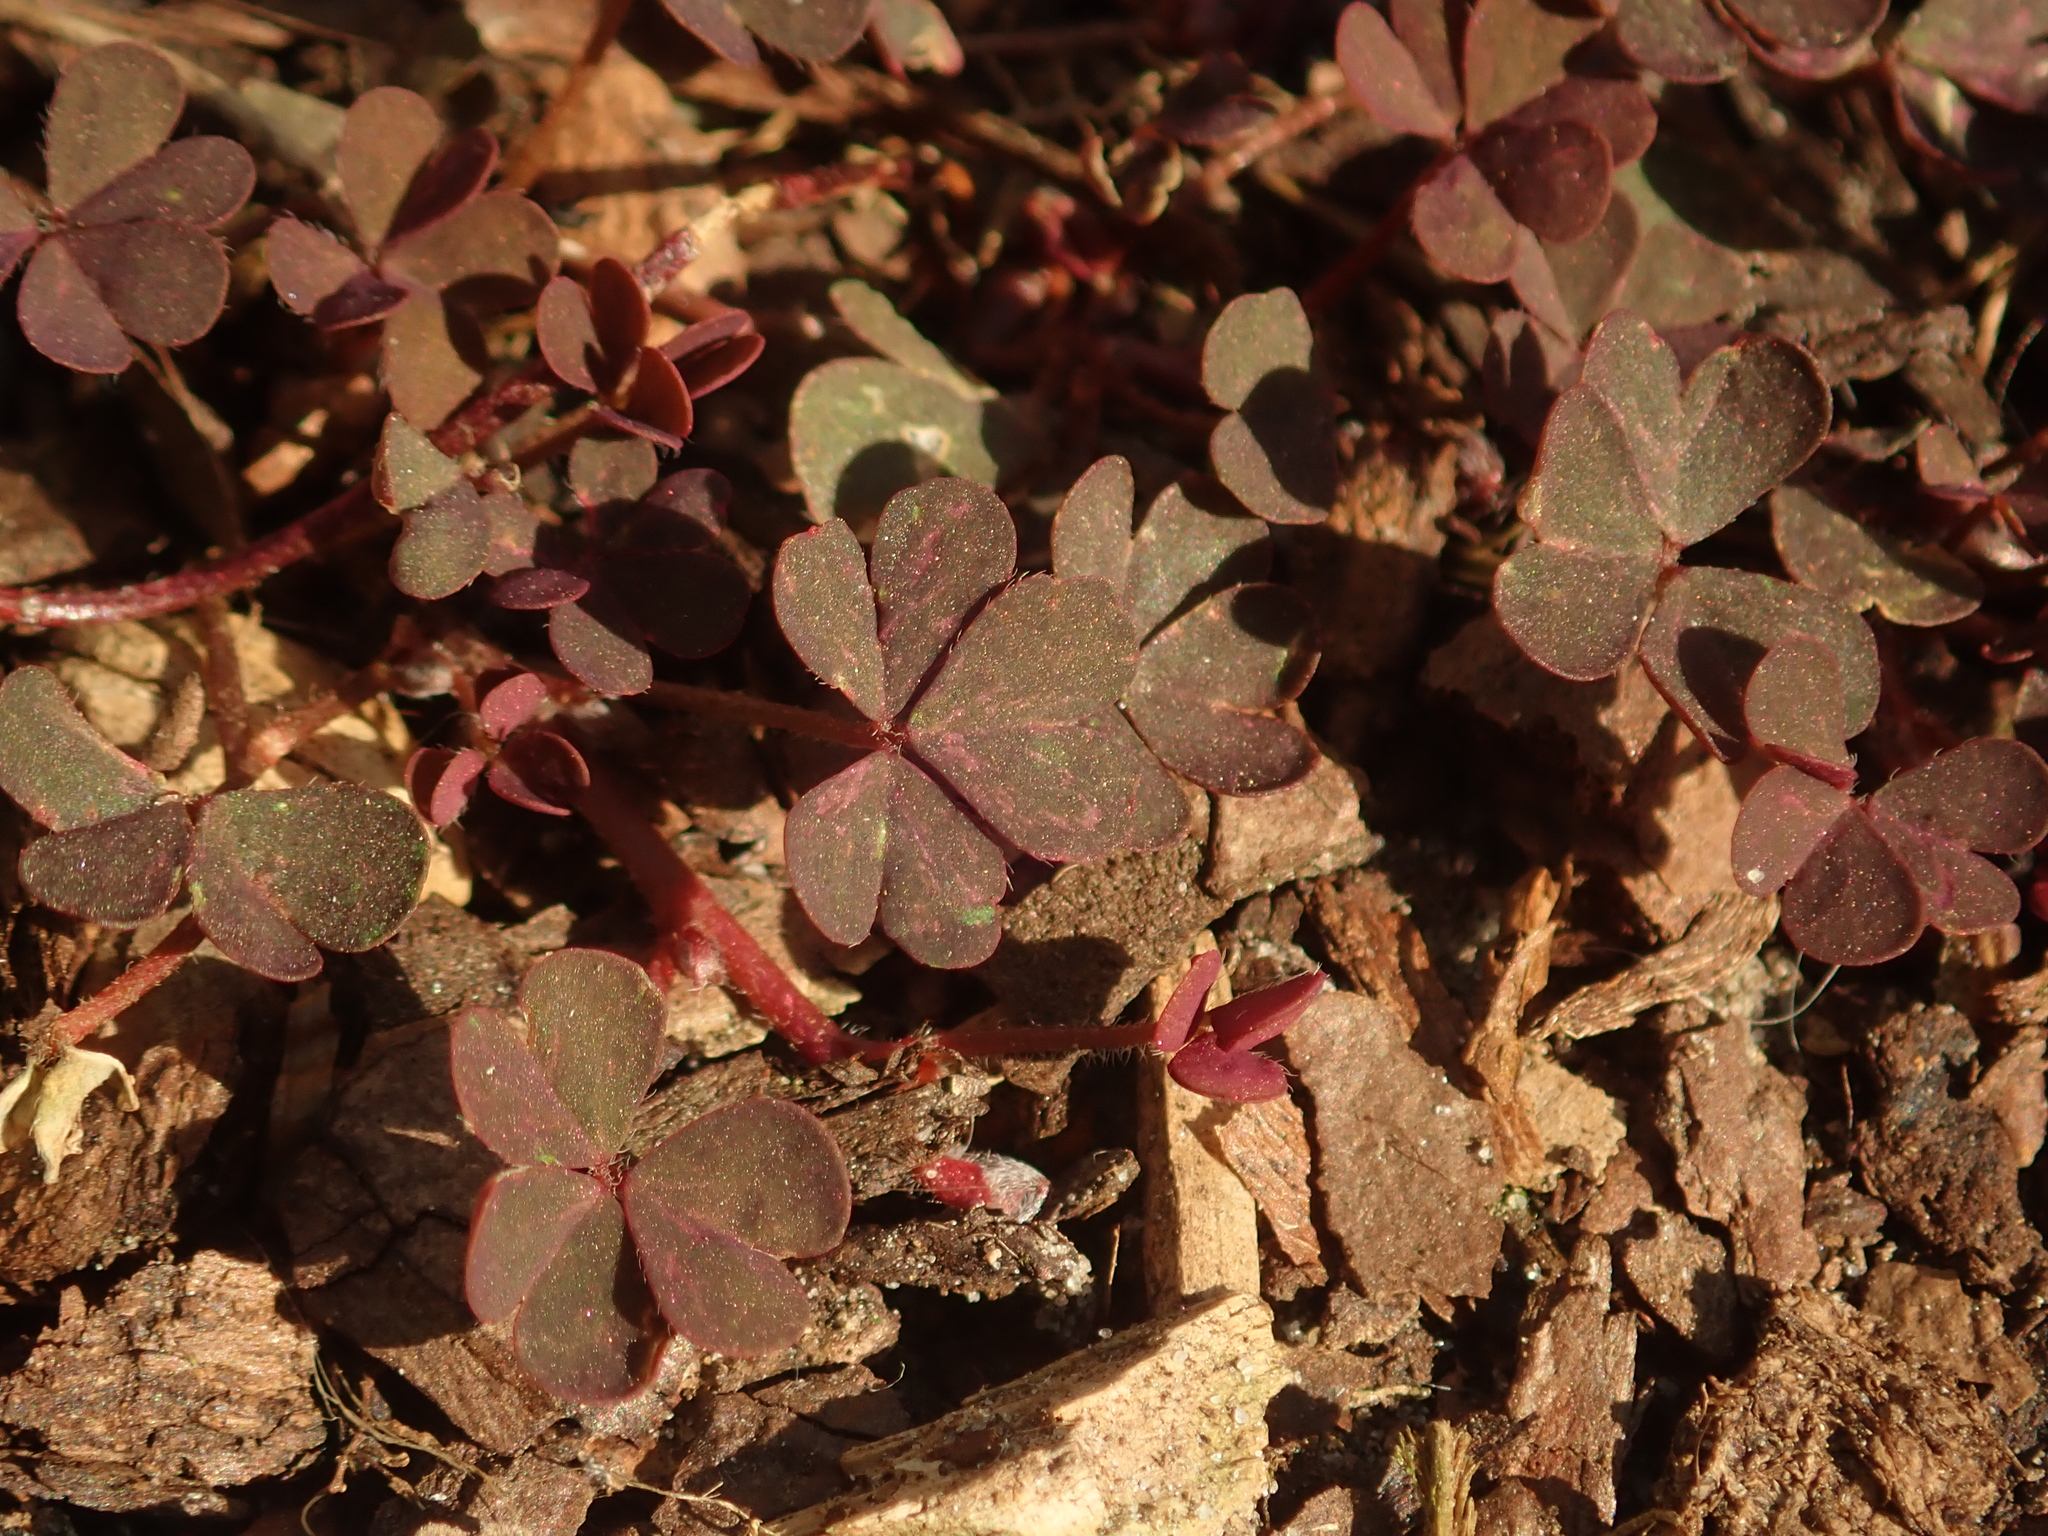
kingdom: Plantae
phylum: Tracheophyta
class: Magnoliopsida
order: Oxalidales
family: Oxalidaceae
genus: Oxalis
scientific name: Oxalis corniculata
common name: Procumbent yellow-sorrel
